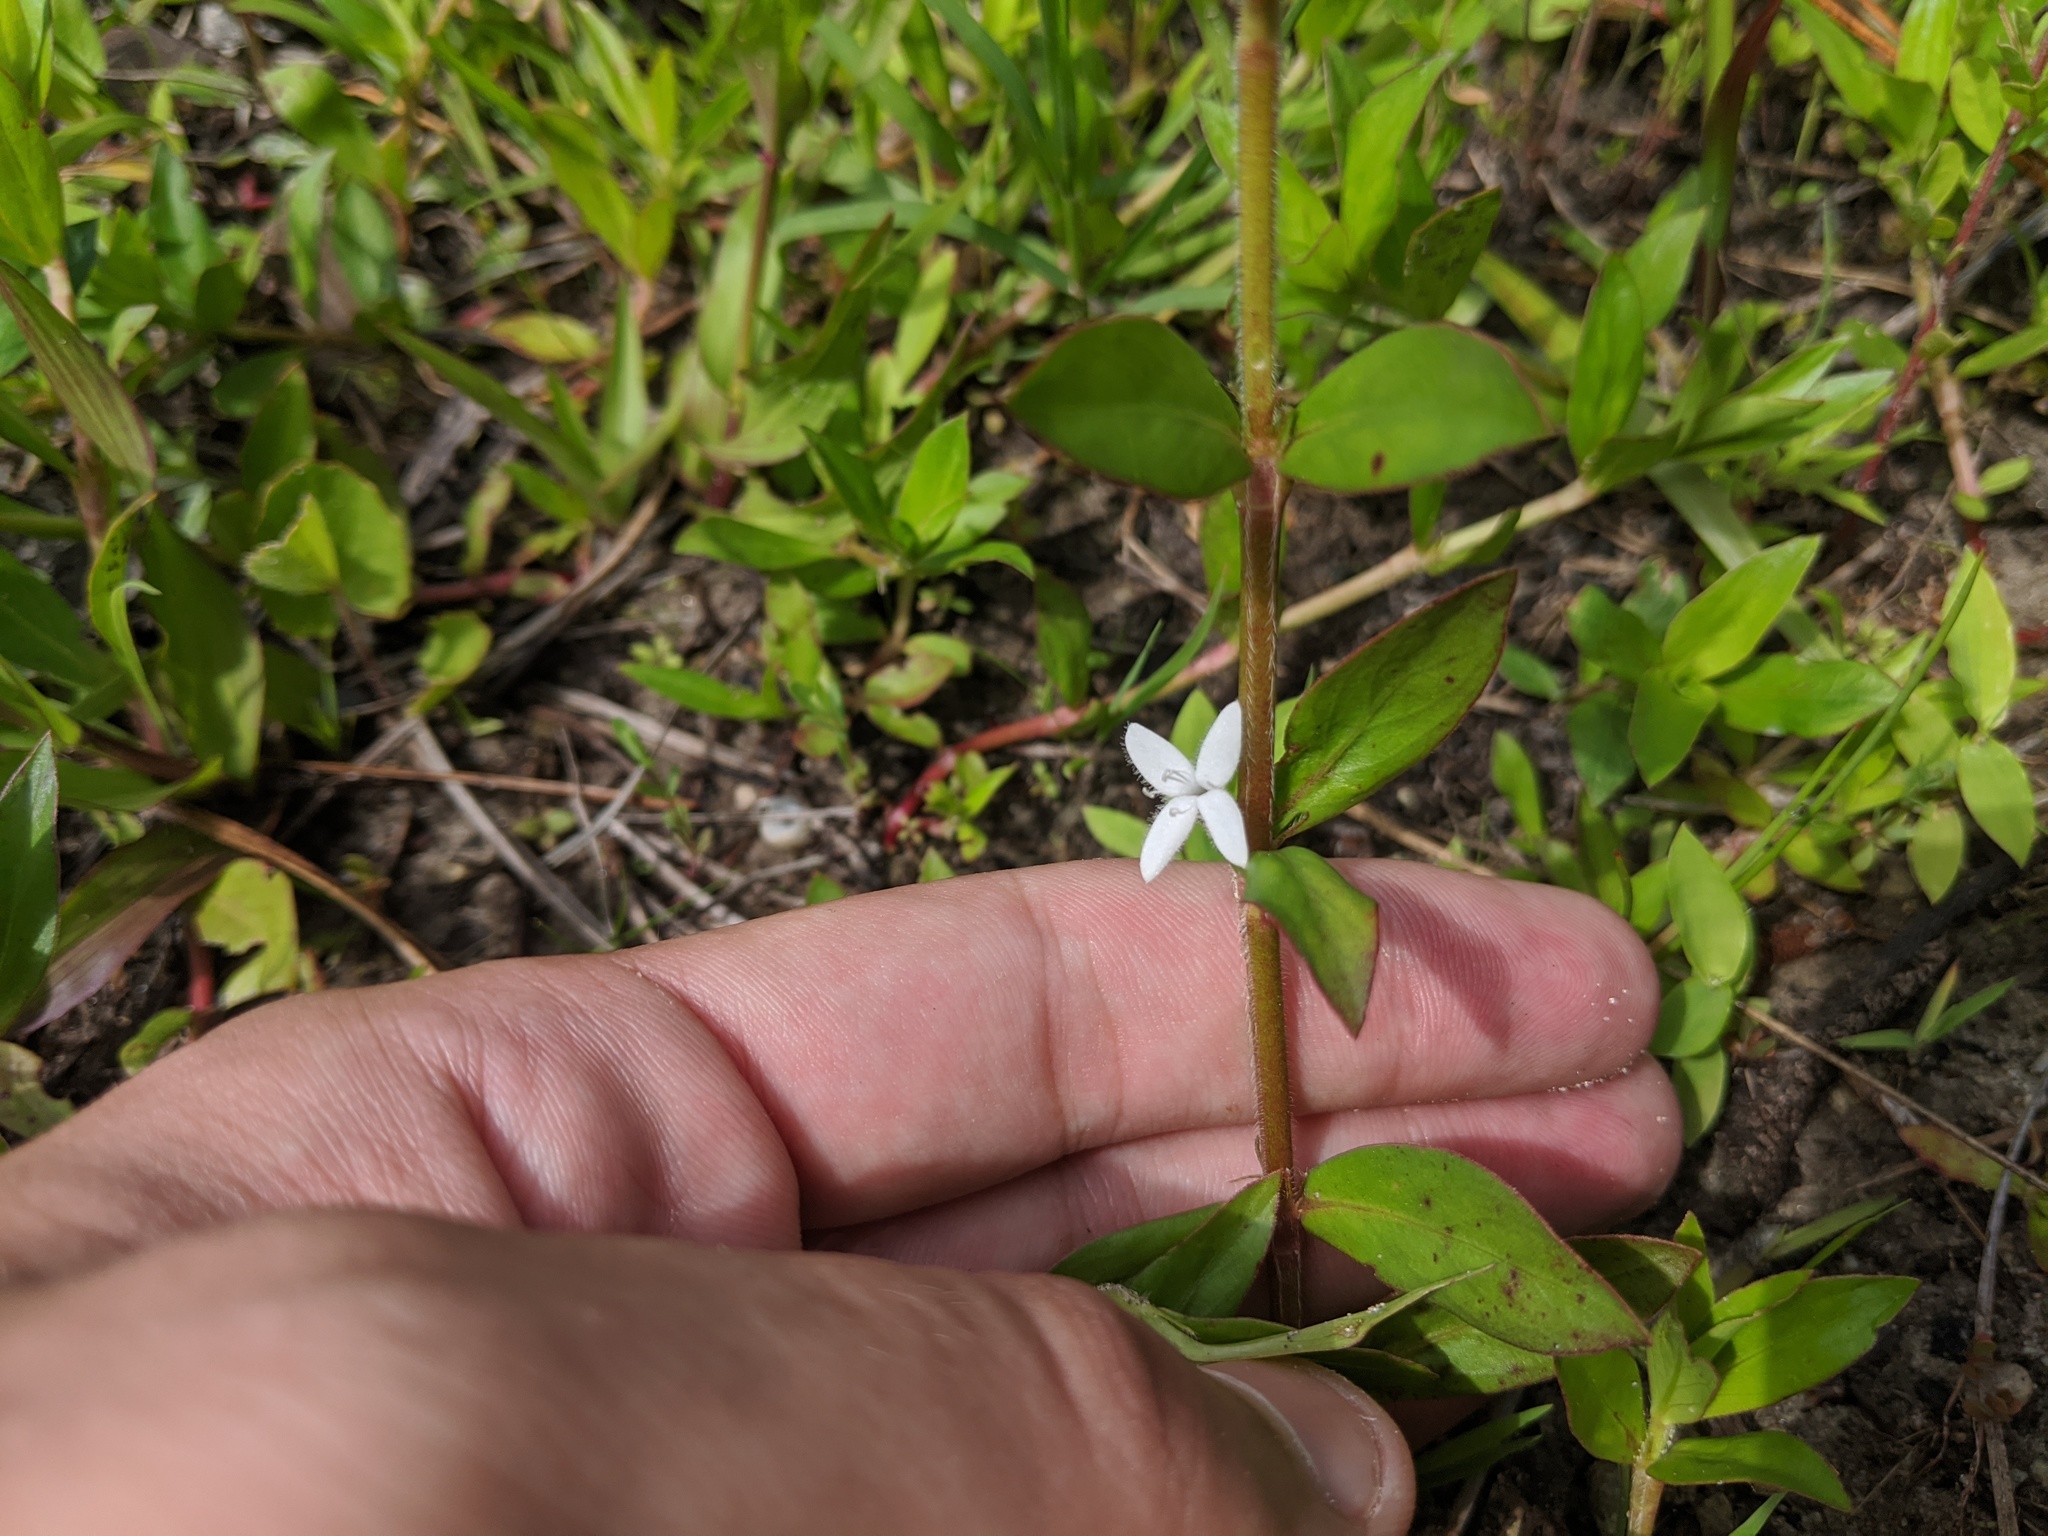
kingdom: Plantae
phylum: Tracheophyta
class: Magnoliopsida
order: Gentianales
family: Rubiaceae
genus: Diodia
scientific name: Diodia virginiana
